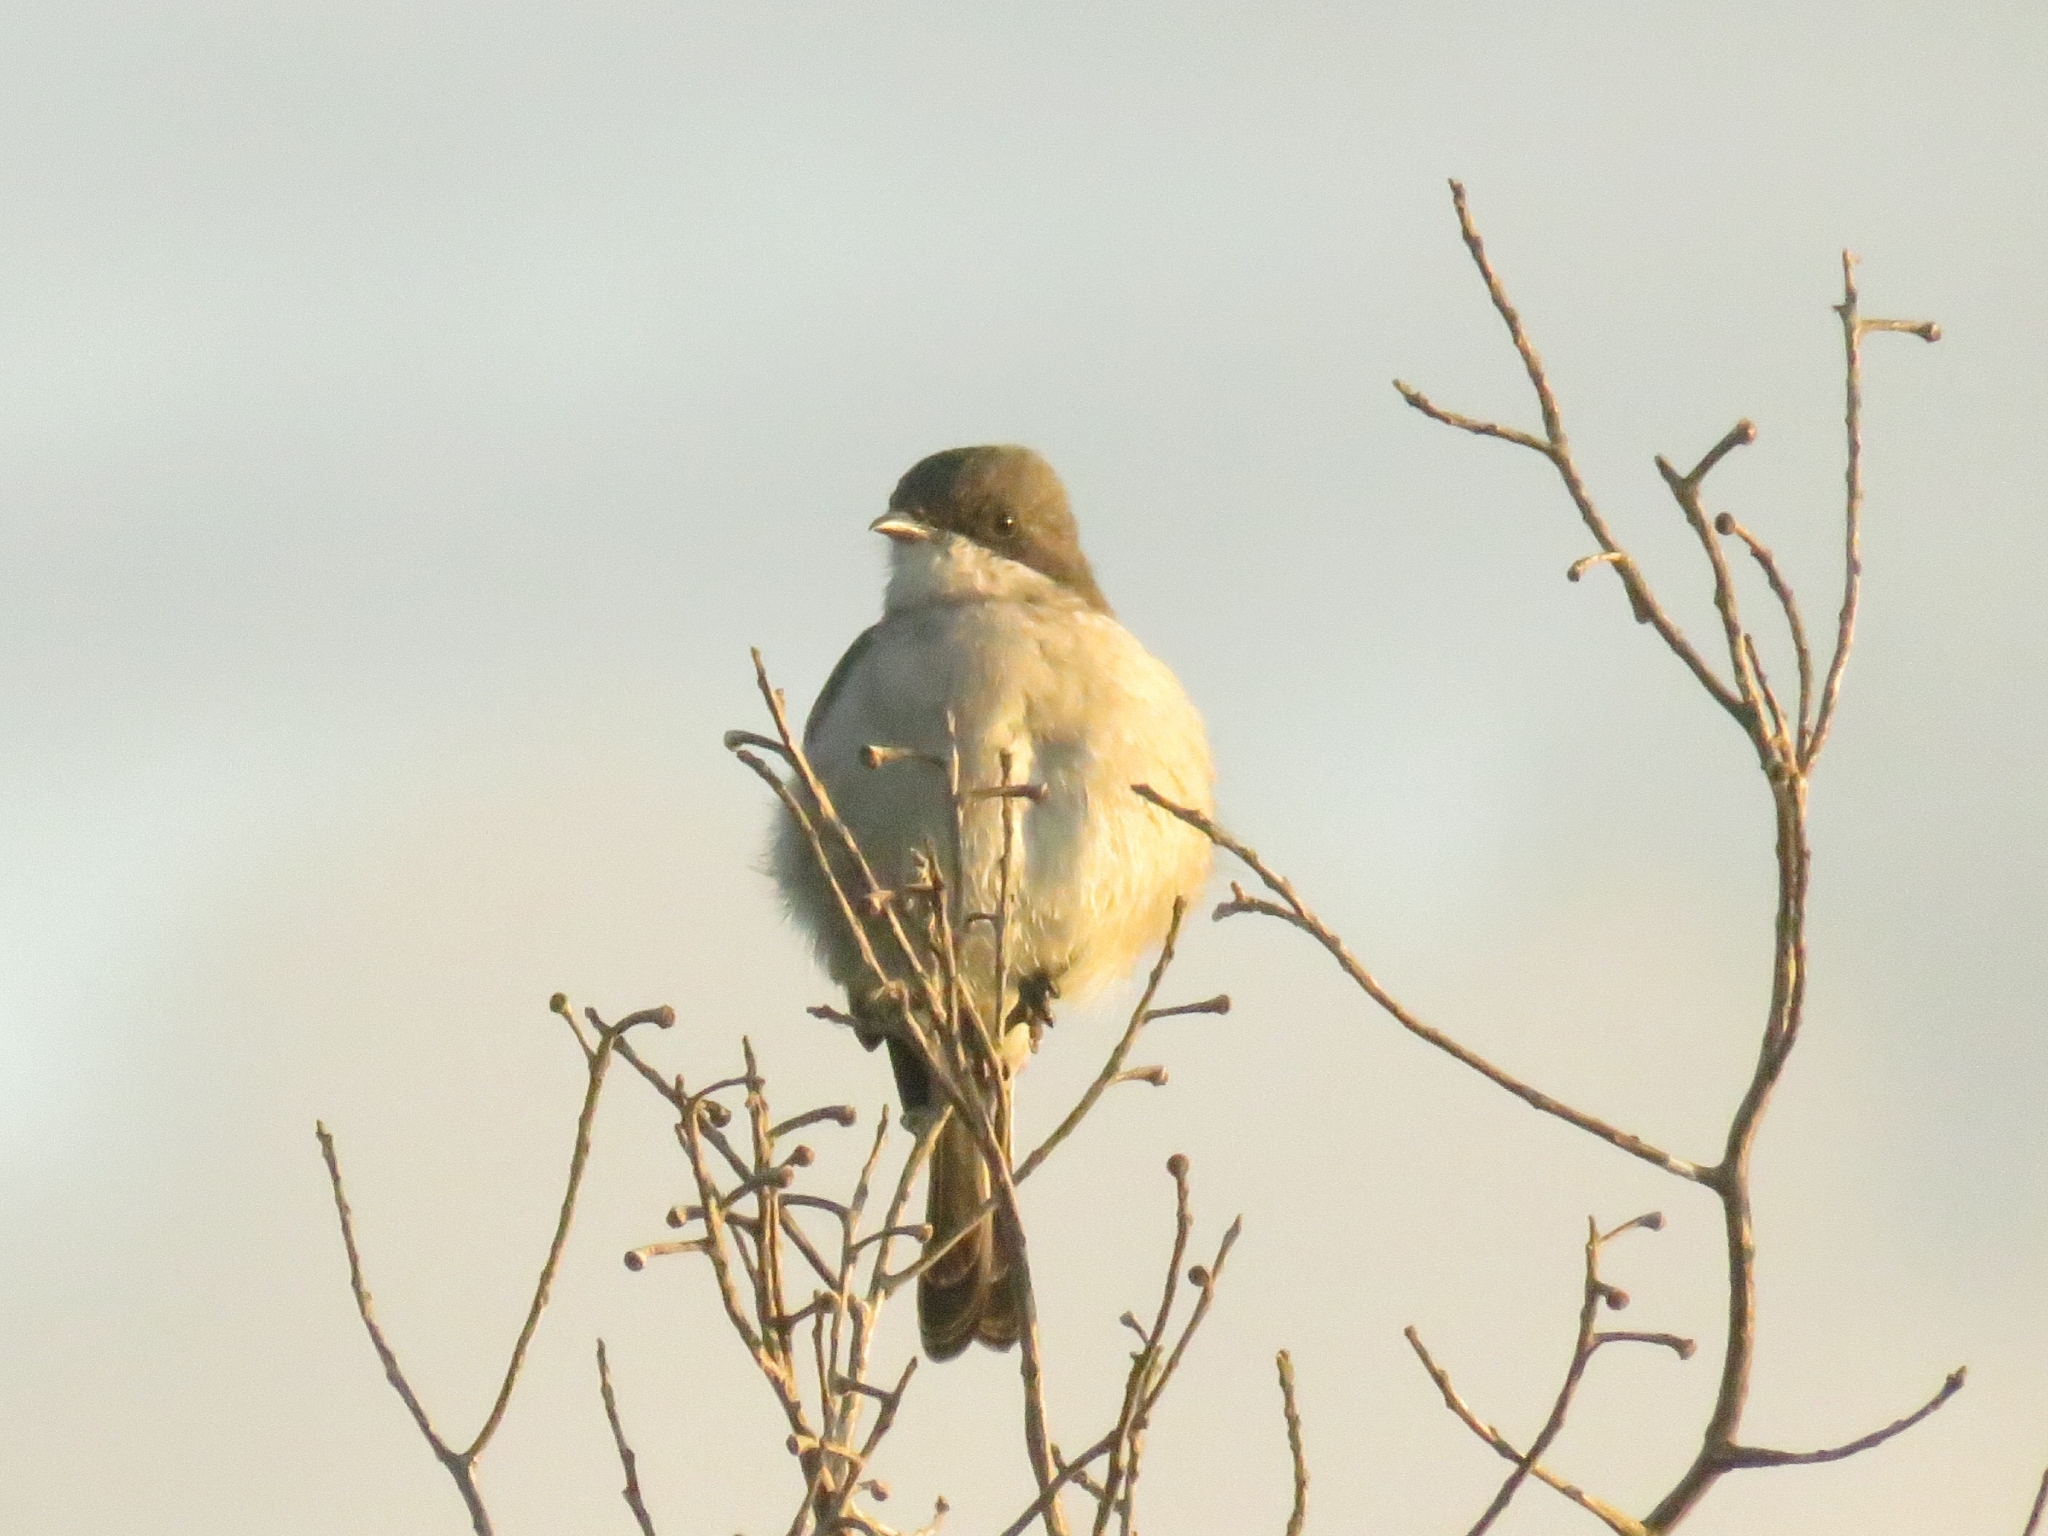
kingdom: Animalia
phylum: Chordata
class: Aves
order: Passeriformes
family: Muscicapidae
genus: Sigelus
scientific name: Sigelus silens
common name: Fiscal flycatcher
